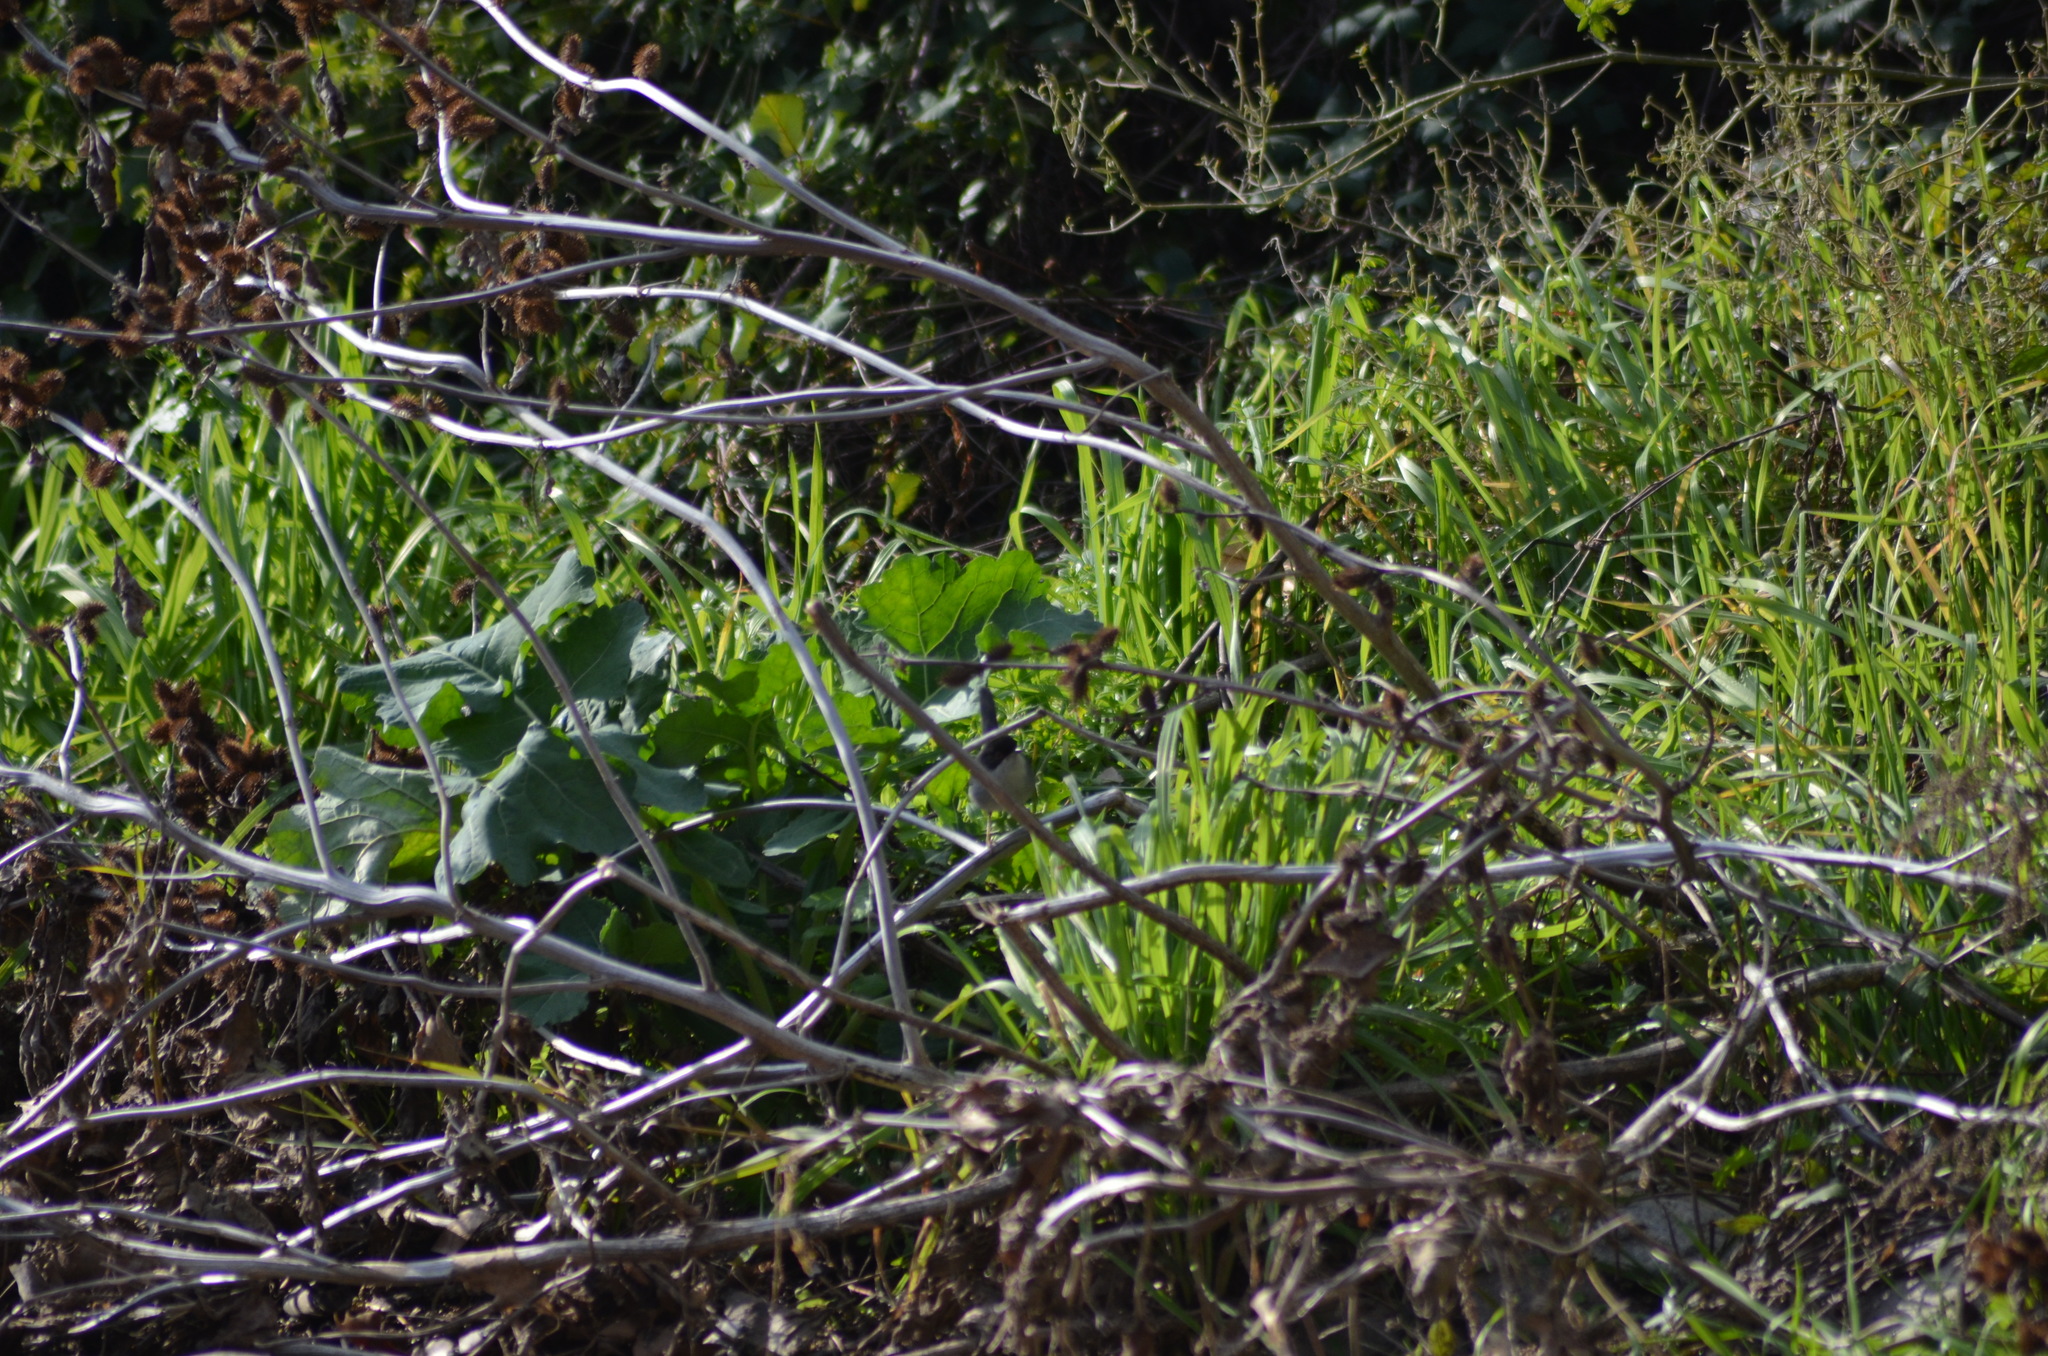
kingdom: Animalia
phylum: Chordata
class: Aves
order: Passeriformes
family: Sylviidae
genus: Curruca
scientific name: Curruca melanocephala
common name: Sardinian warbler
